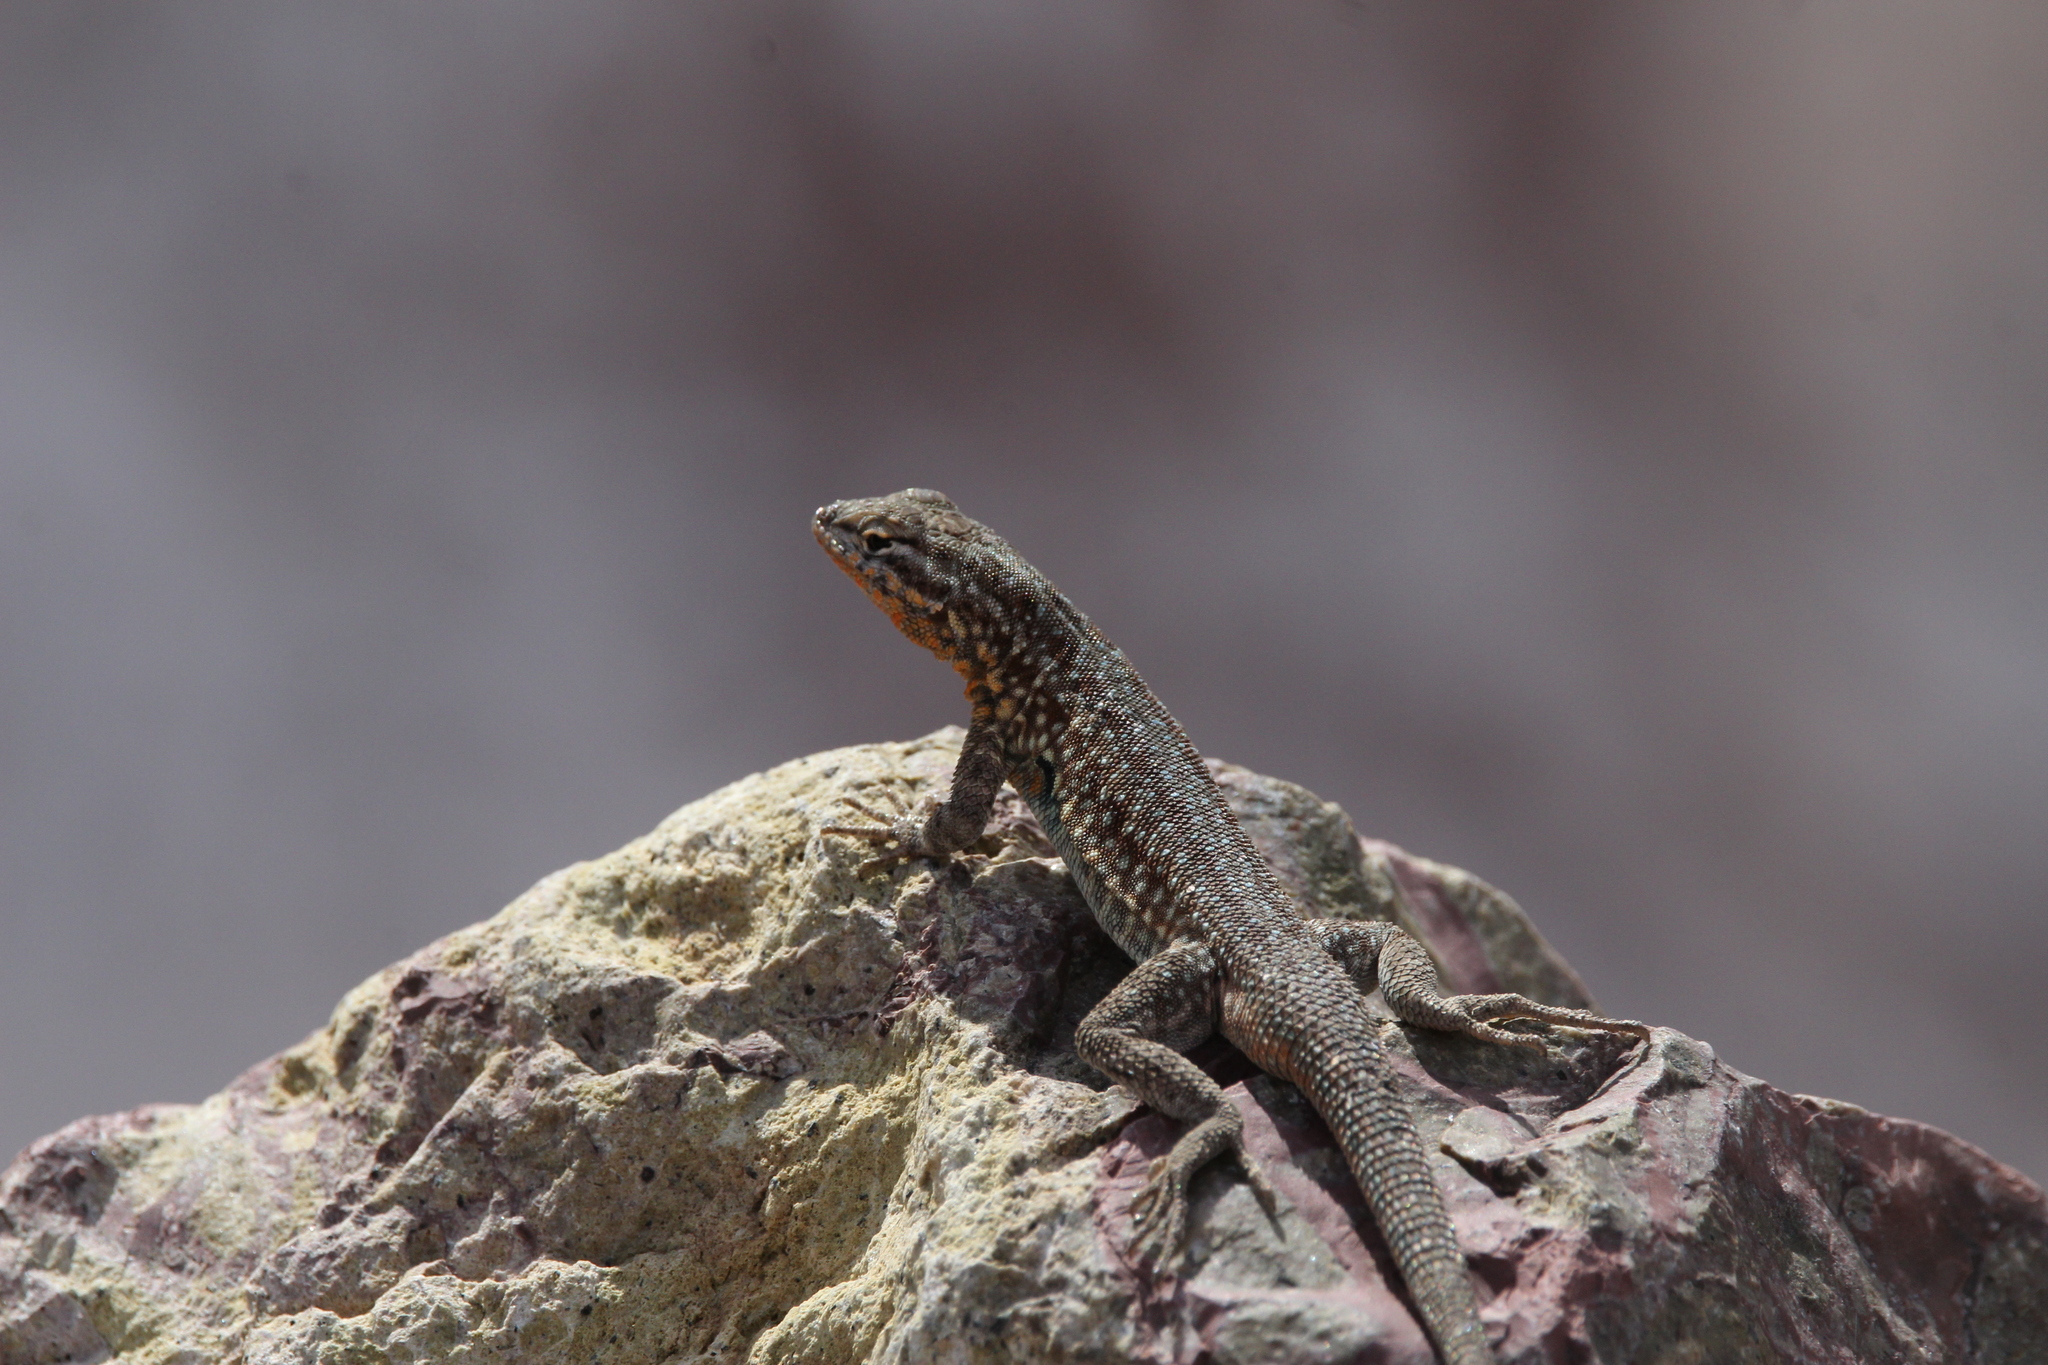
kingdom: Animalia
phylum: Chordata
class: Squamata
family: Phrynosomatidae
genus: Uta
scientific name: Uta stansburiana
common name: Side-blotched lizard
